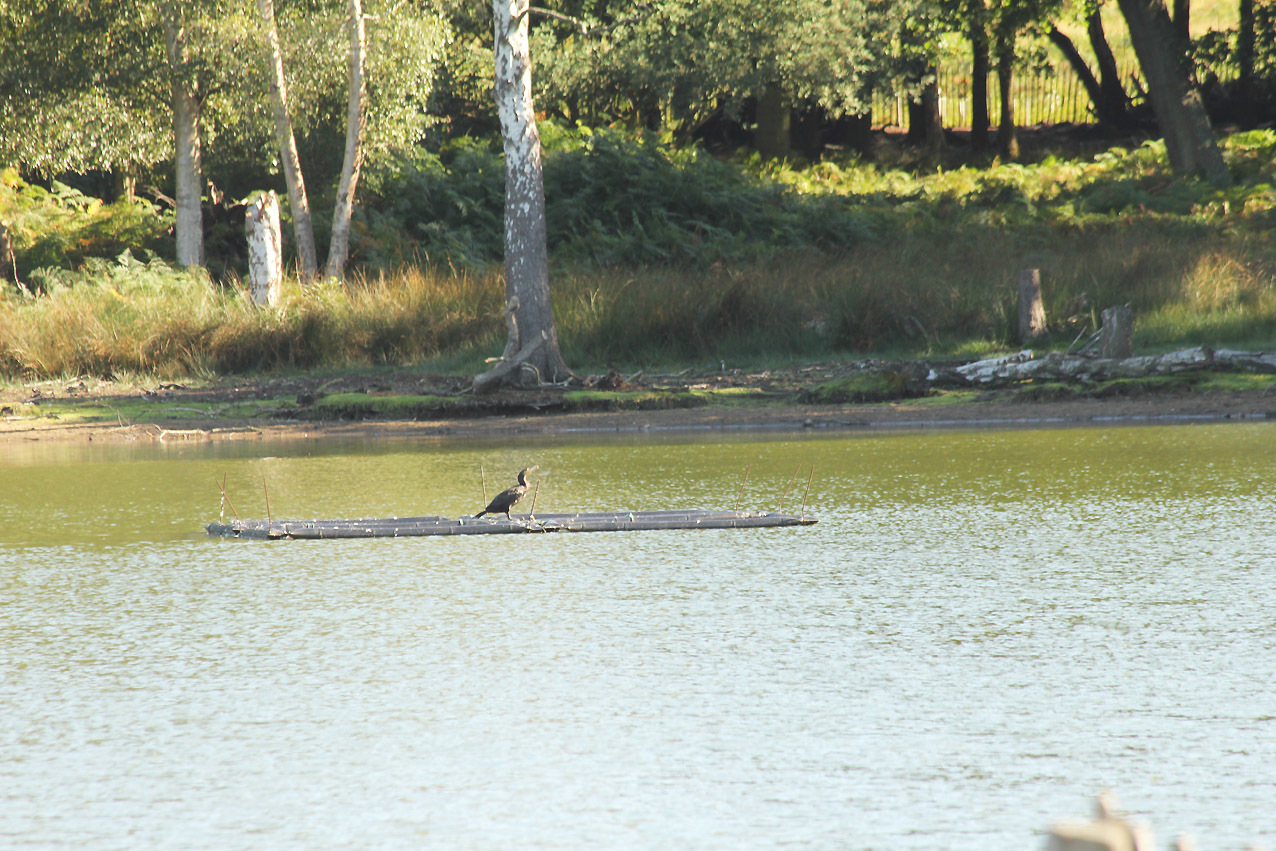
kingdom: Animalia
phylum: Chordata
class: Aves
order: Suliformes
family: Phalacrocoracidae
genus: Phalacrocorax
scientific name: Phalacrocorax carbo
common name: Great cormorant
